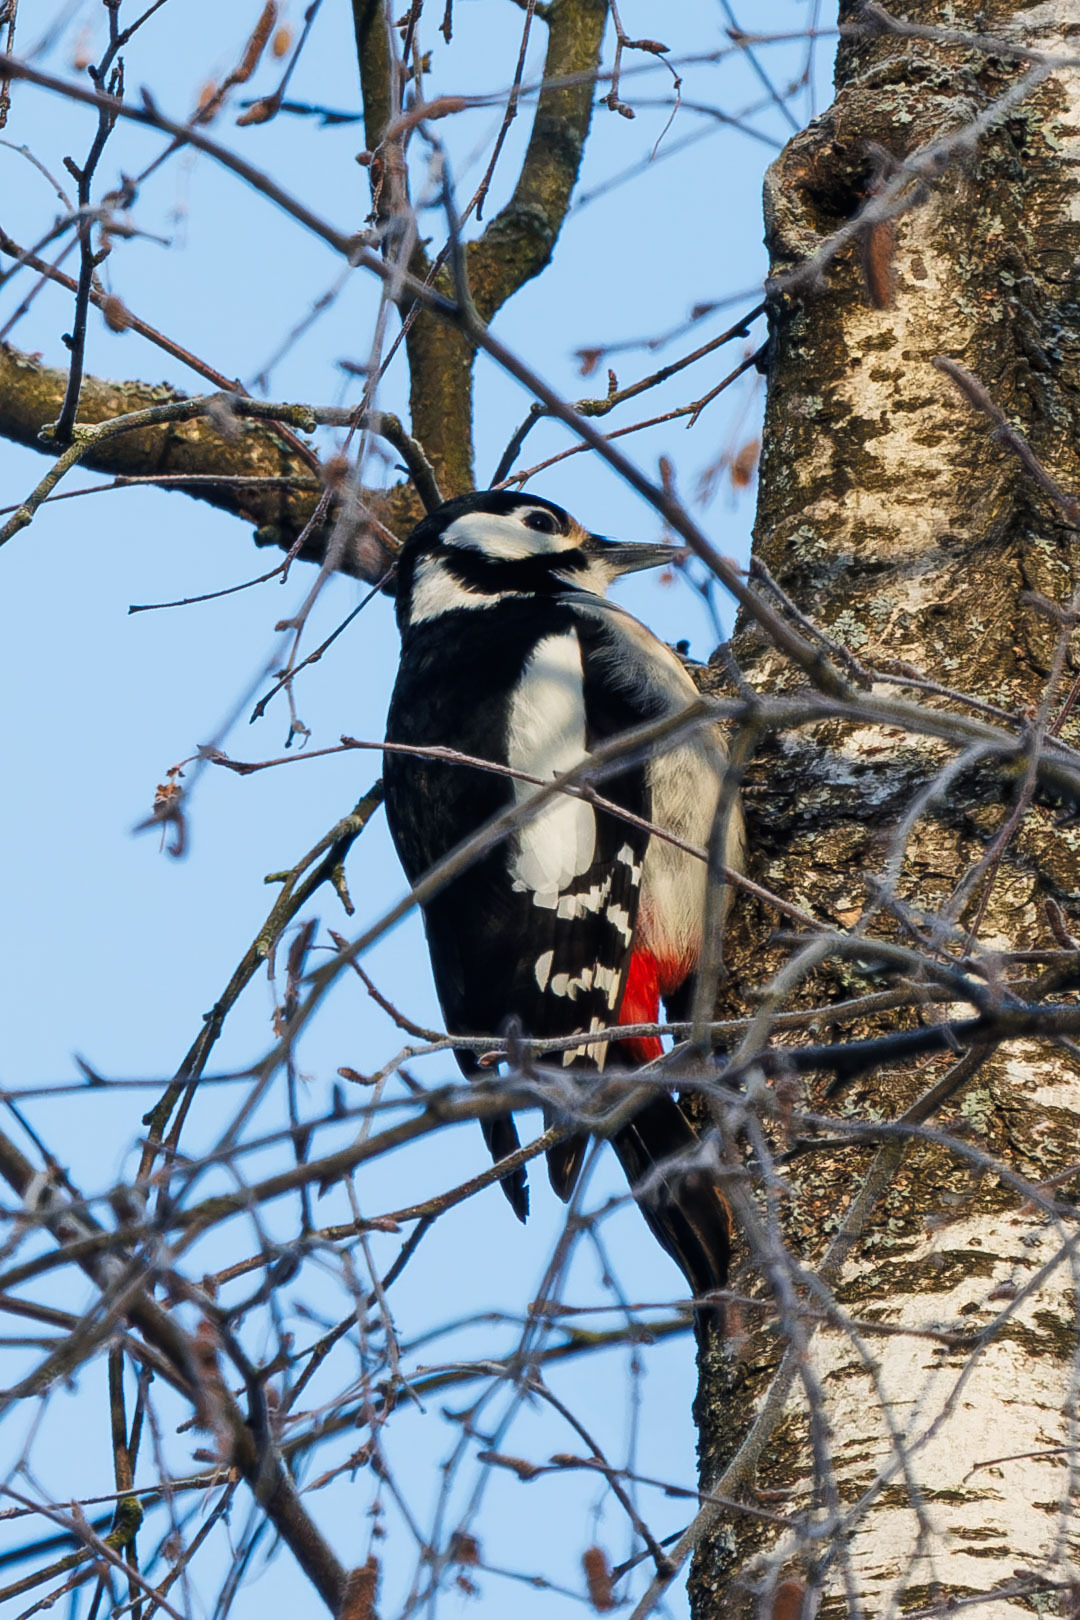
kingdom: Animalia
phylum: Chordata
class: Aves
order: Piciformes
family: Picidae
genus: Dendrocopos
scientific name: Dendrocopos major
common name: Great spotted woodpecker
